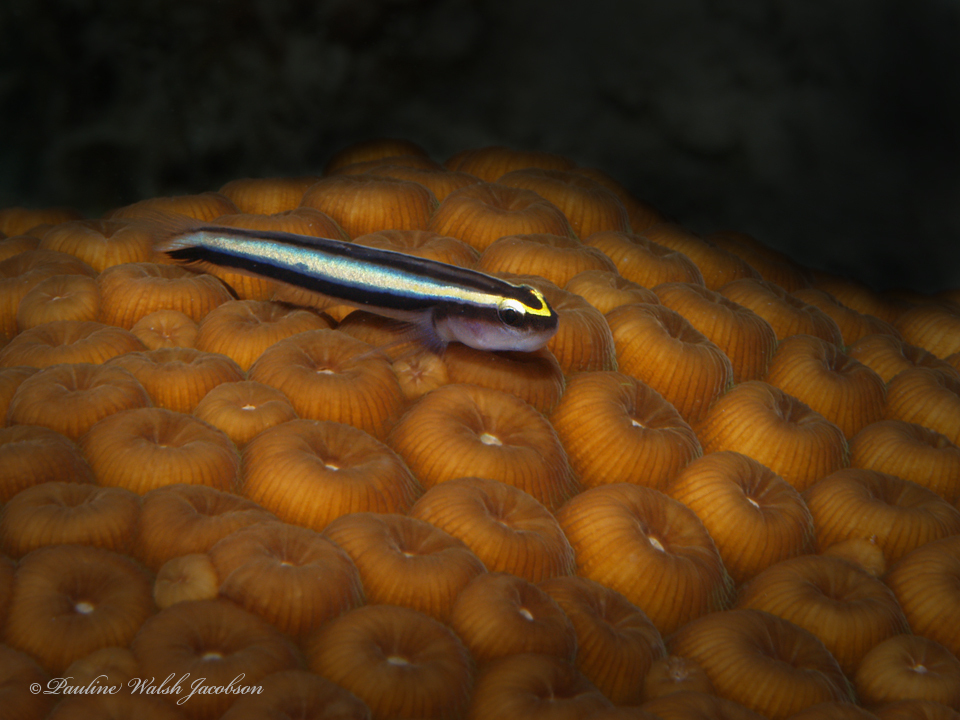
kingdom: Animalia
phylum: Chordata
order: Perciformes
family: Gobiidae
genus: Elacatinus
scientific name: Elacatinus evelynae
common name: Sharknose goby
